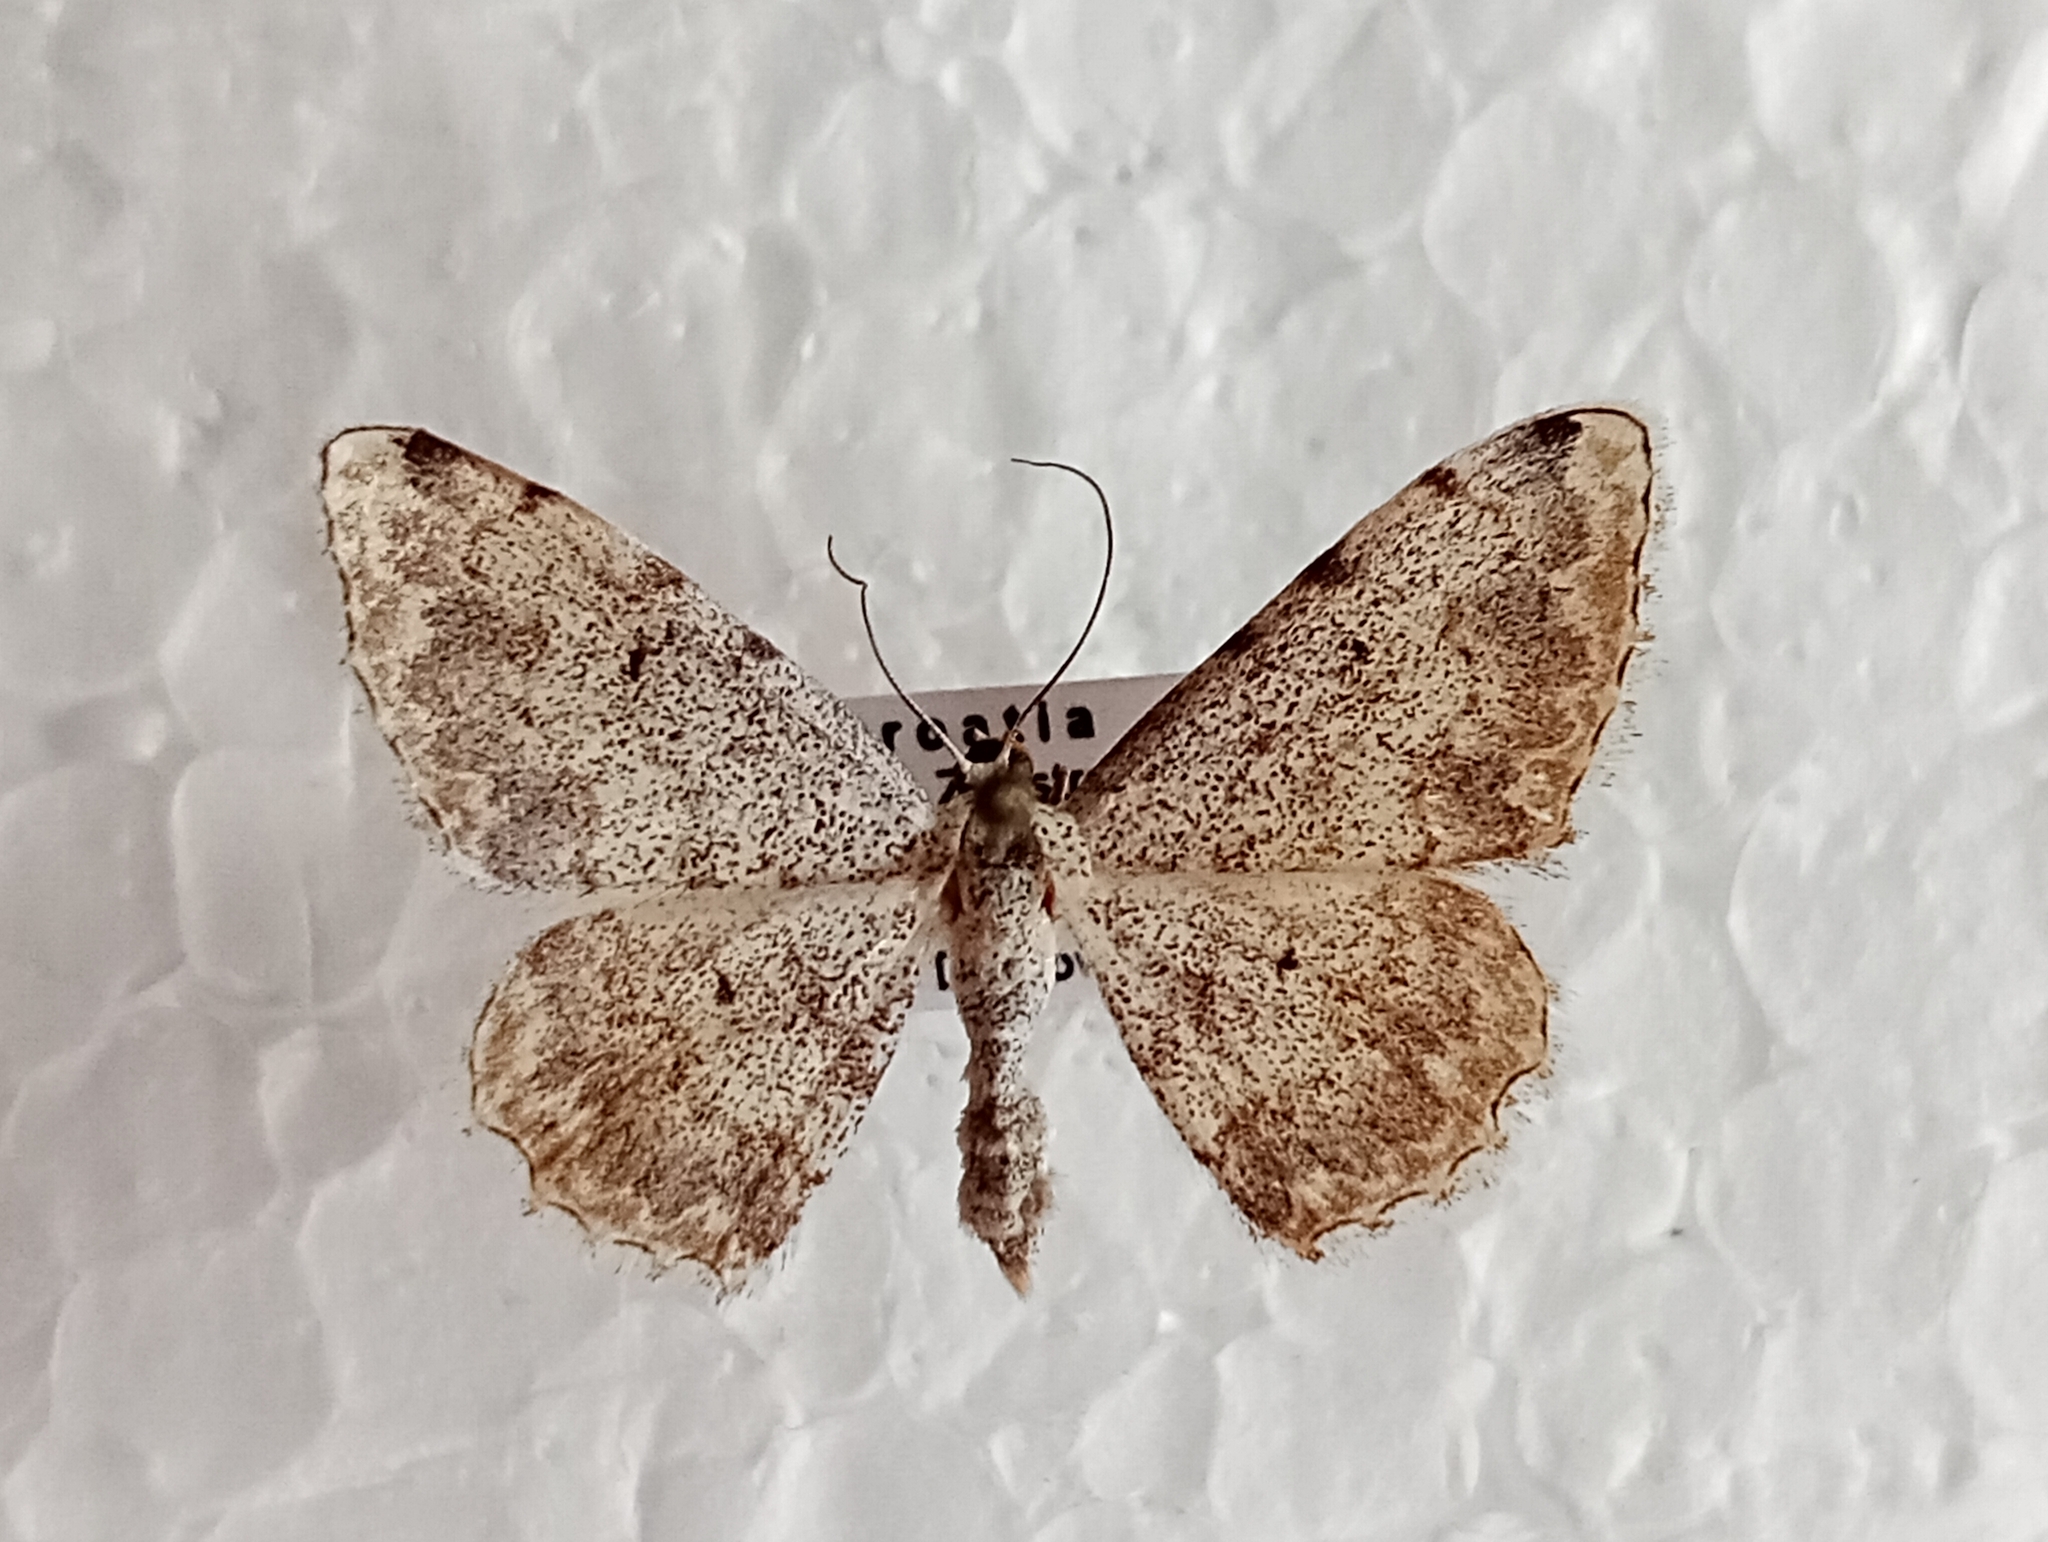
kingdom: Animalia
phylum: Arthropoda
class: Insecta
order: Lepidoptera
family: Geometridae
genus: Scopula
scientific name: Scopula submutata
